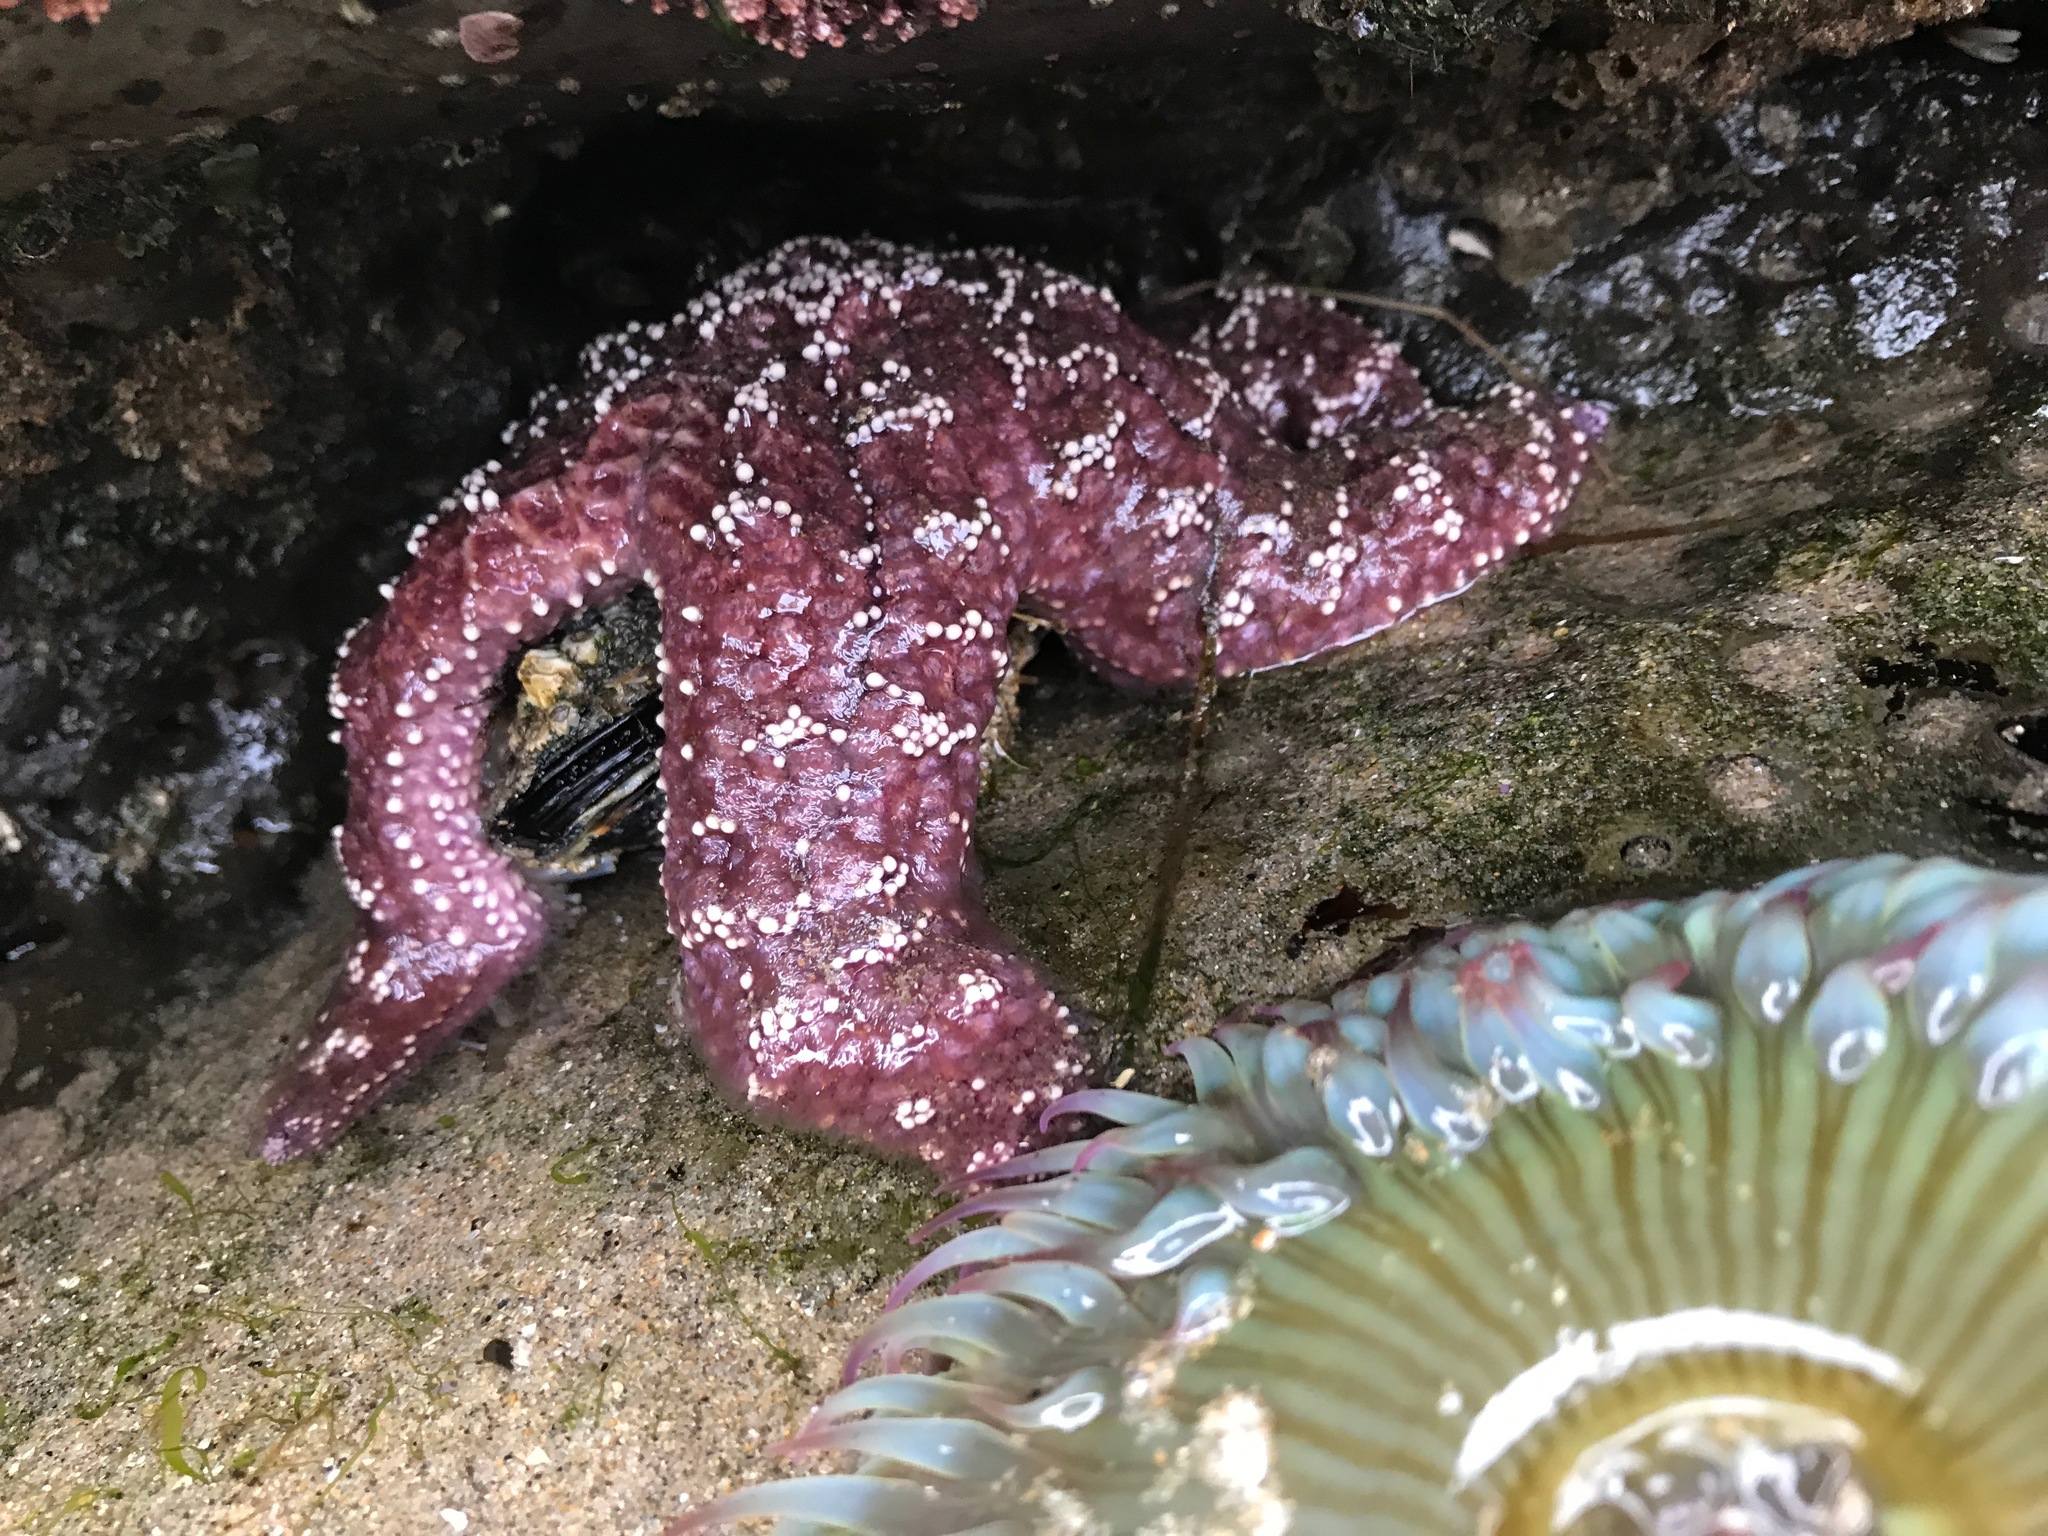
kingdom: Animalia
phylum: Echinodermata
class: Asteroidea
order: Forcipulatida
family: Asteriidae
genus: Pisaster
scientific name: Pisaster ochraceus
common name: Ochre stars
